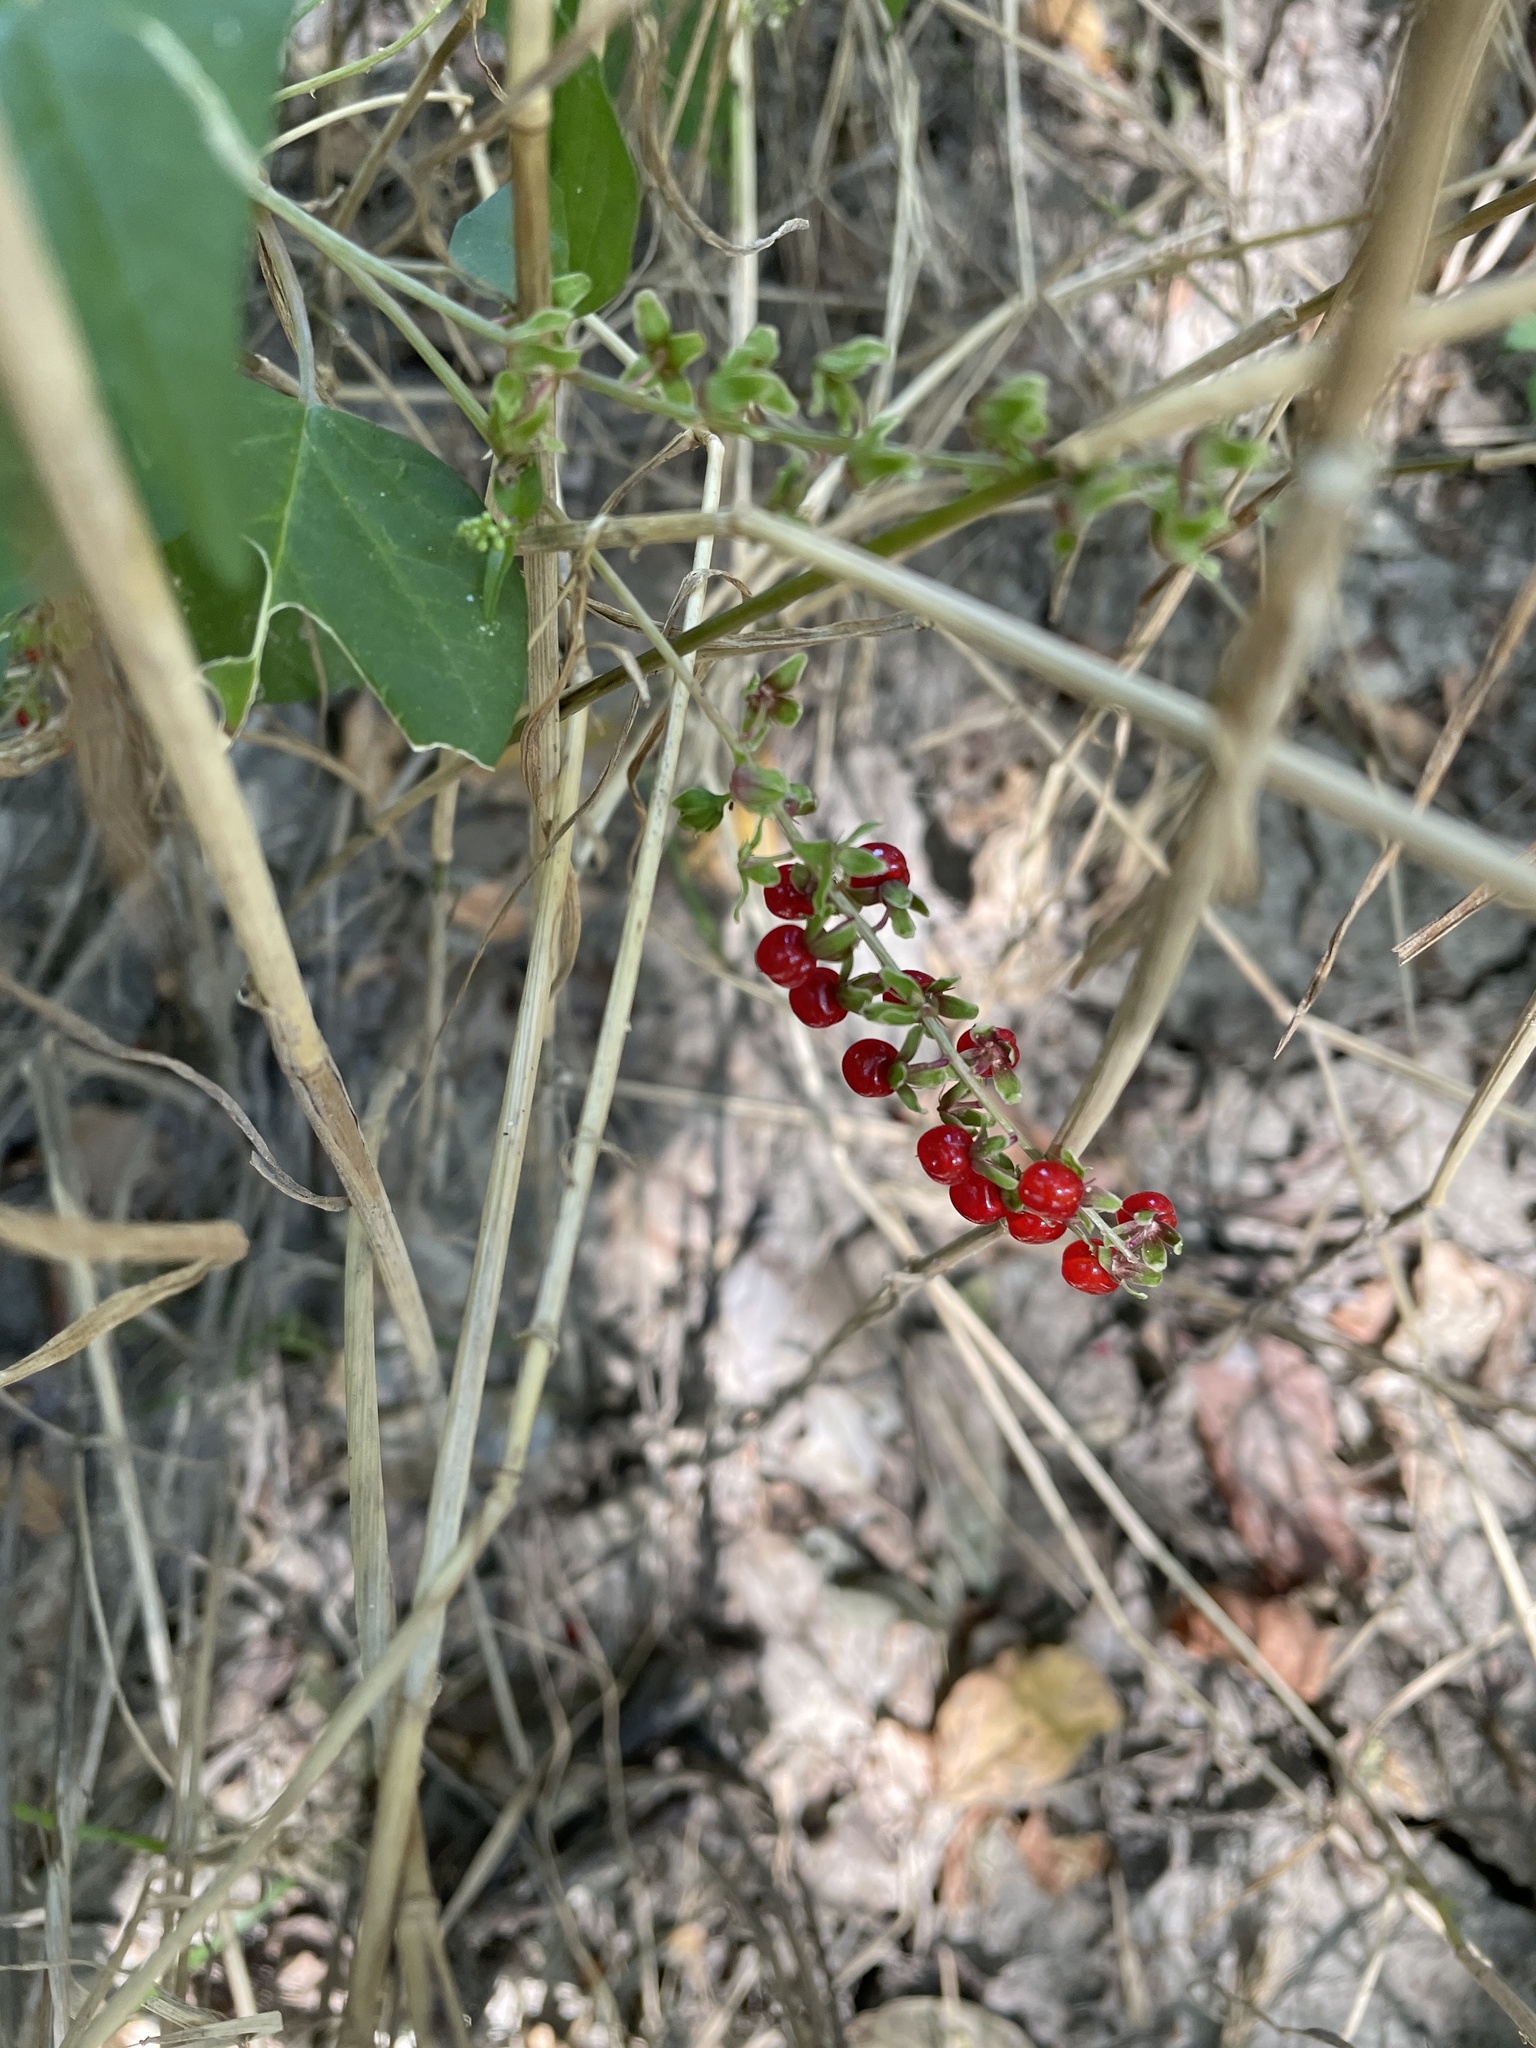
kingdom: Plantae
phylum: Tracheophyta
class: Magnoliopsida
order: Caryophyllales
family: Phytolaccaceae
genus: Rivina
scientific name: Rivina humilis
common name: Rougeplant
